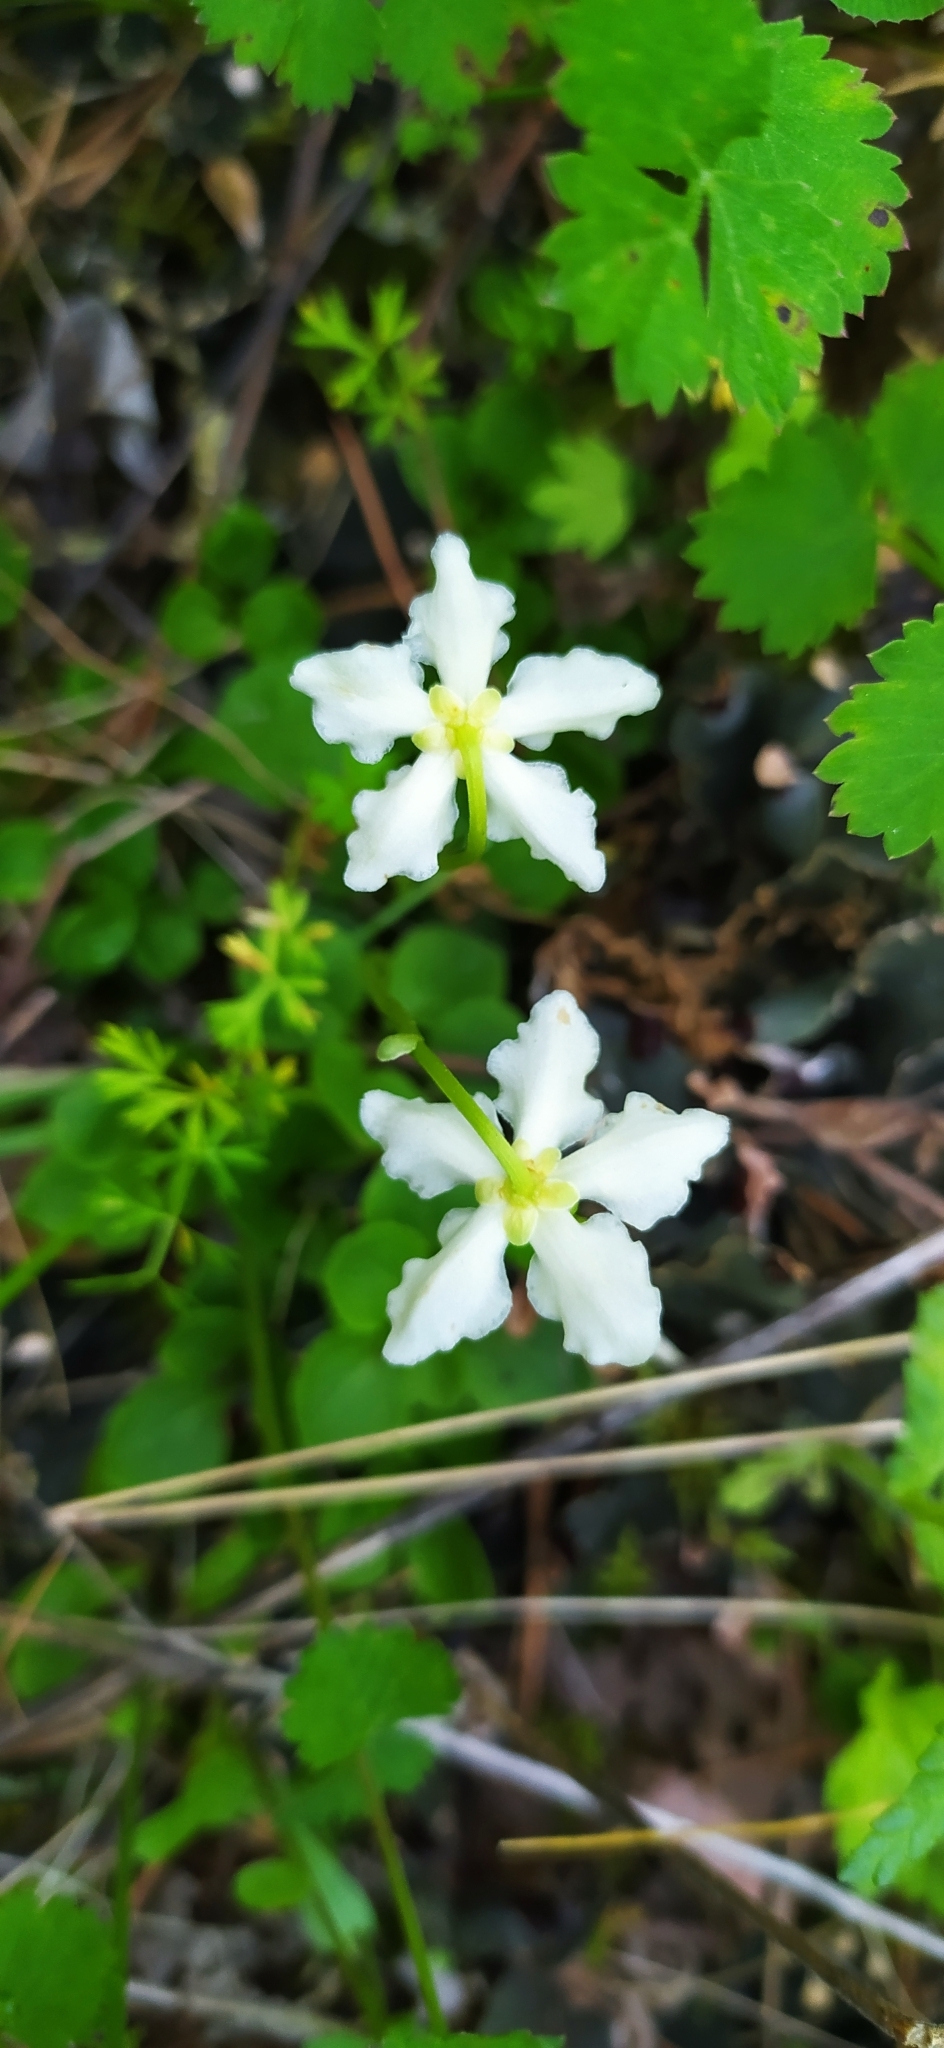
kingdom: Plantae
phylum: Tracheophyta
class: Magnoliopsida
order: Ericales
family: Ericaceae
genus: Moneses
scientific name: Moneses uniflora
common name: One-flowered wintergreen
